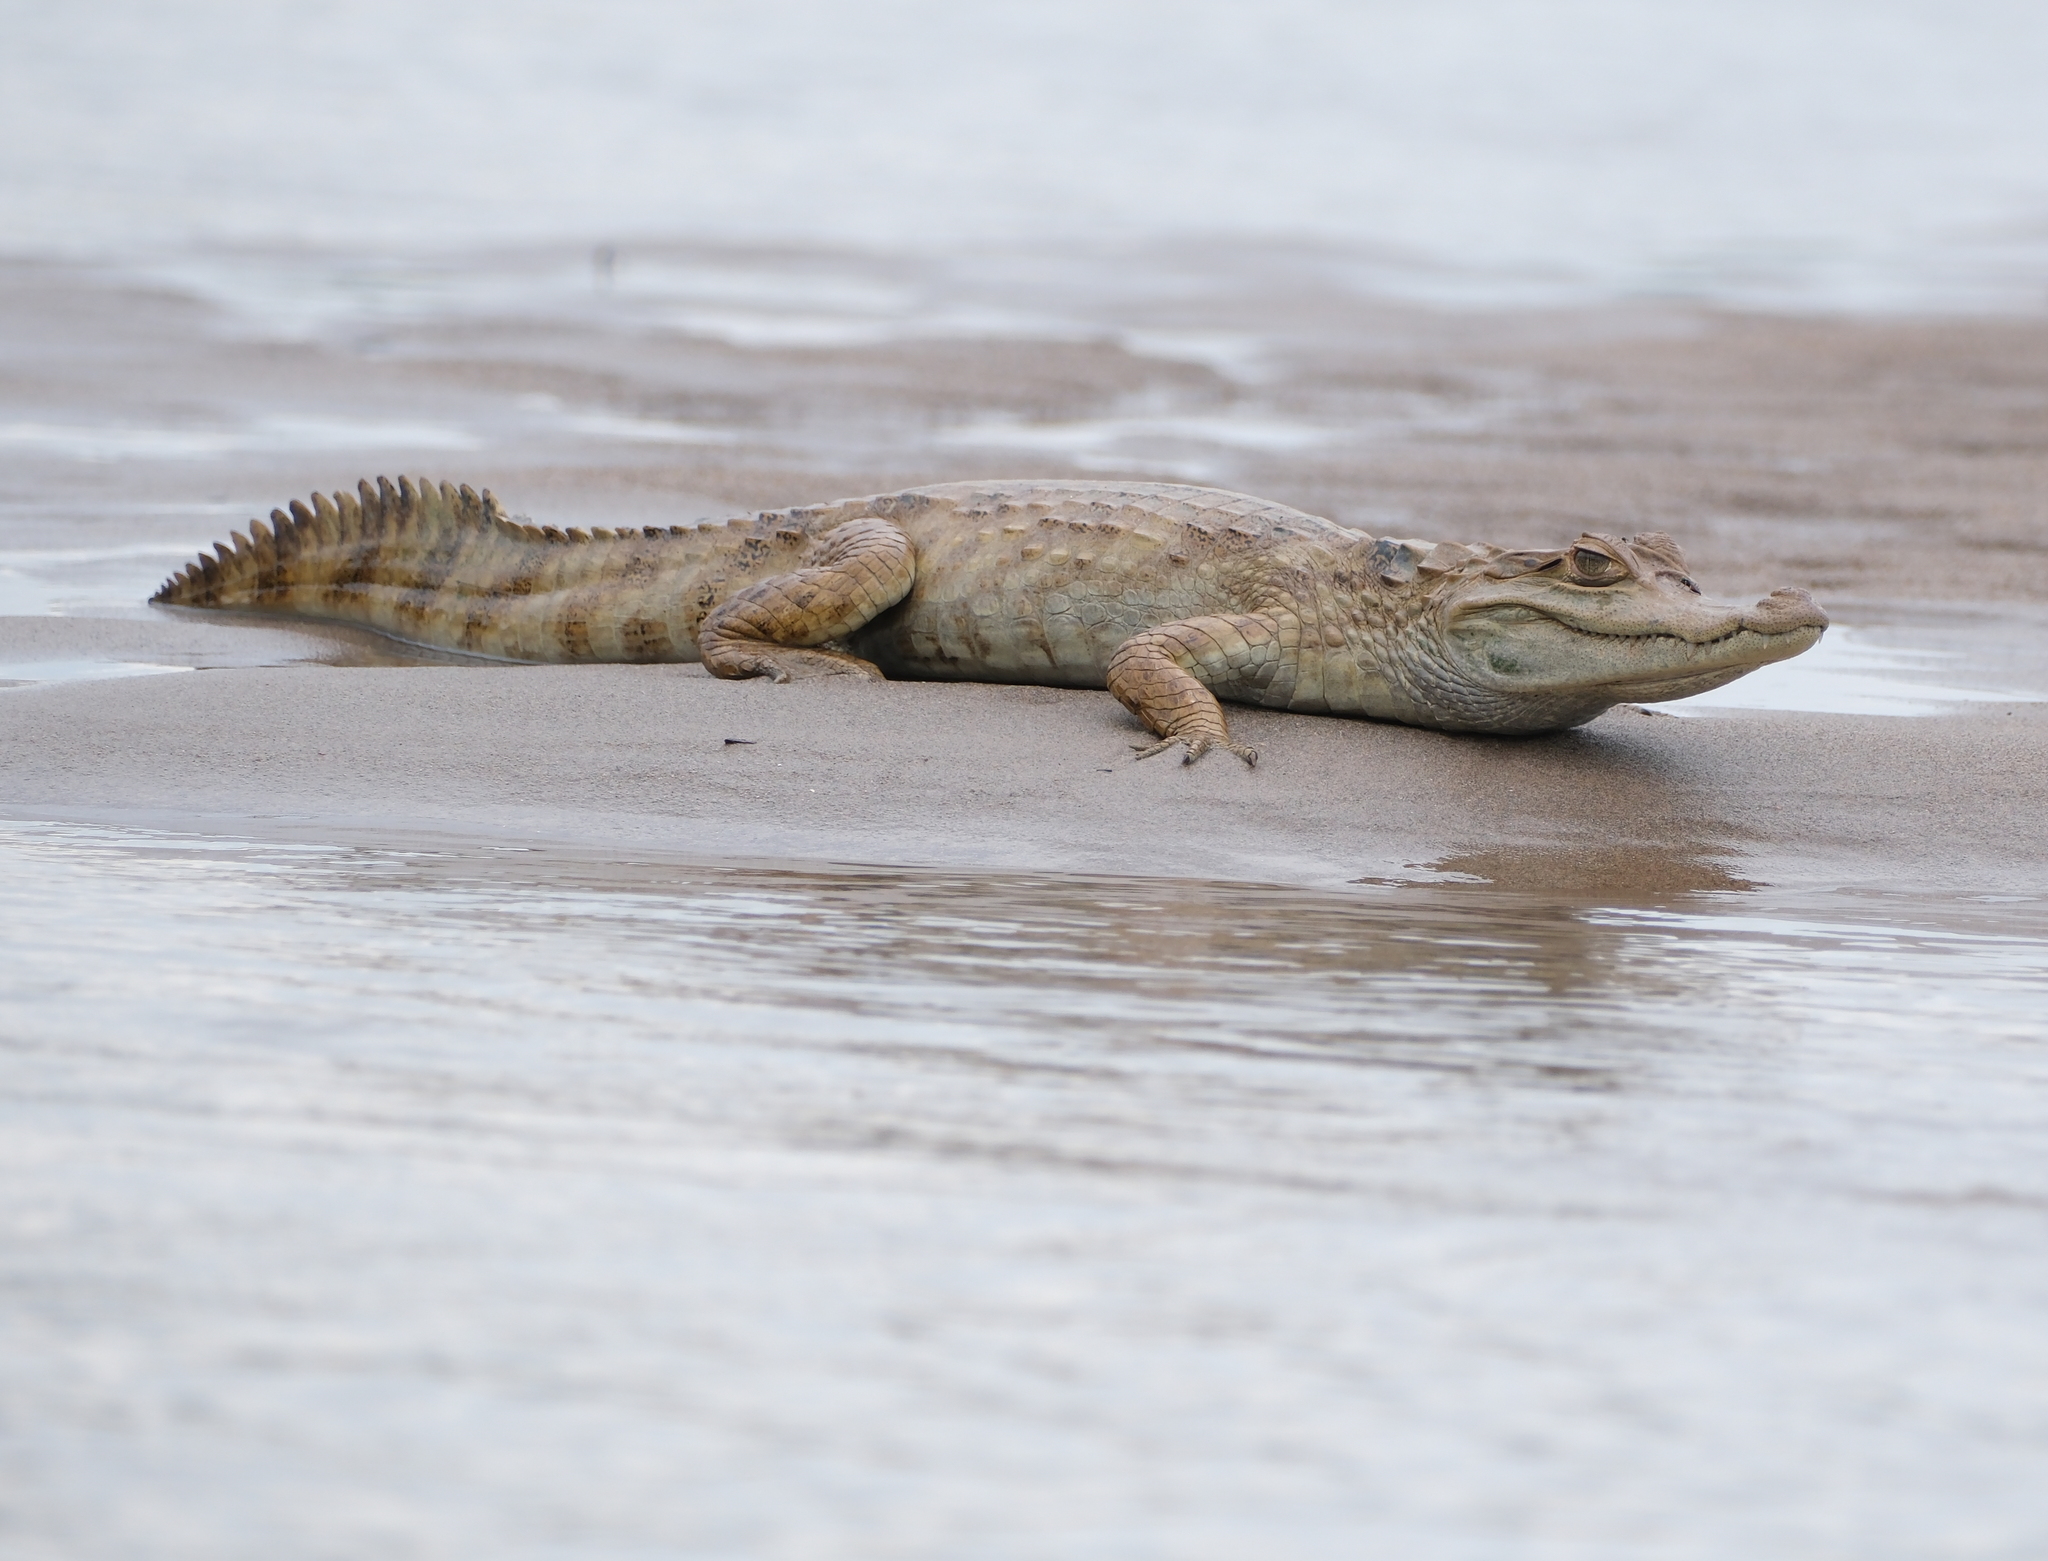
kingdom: Animalia
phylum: Chordata
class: Crocodylia
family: Alligatoridae
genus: Caiman
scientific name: Caiman crocodilus
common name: Common caiman
